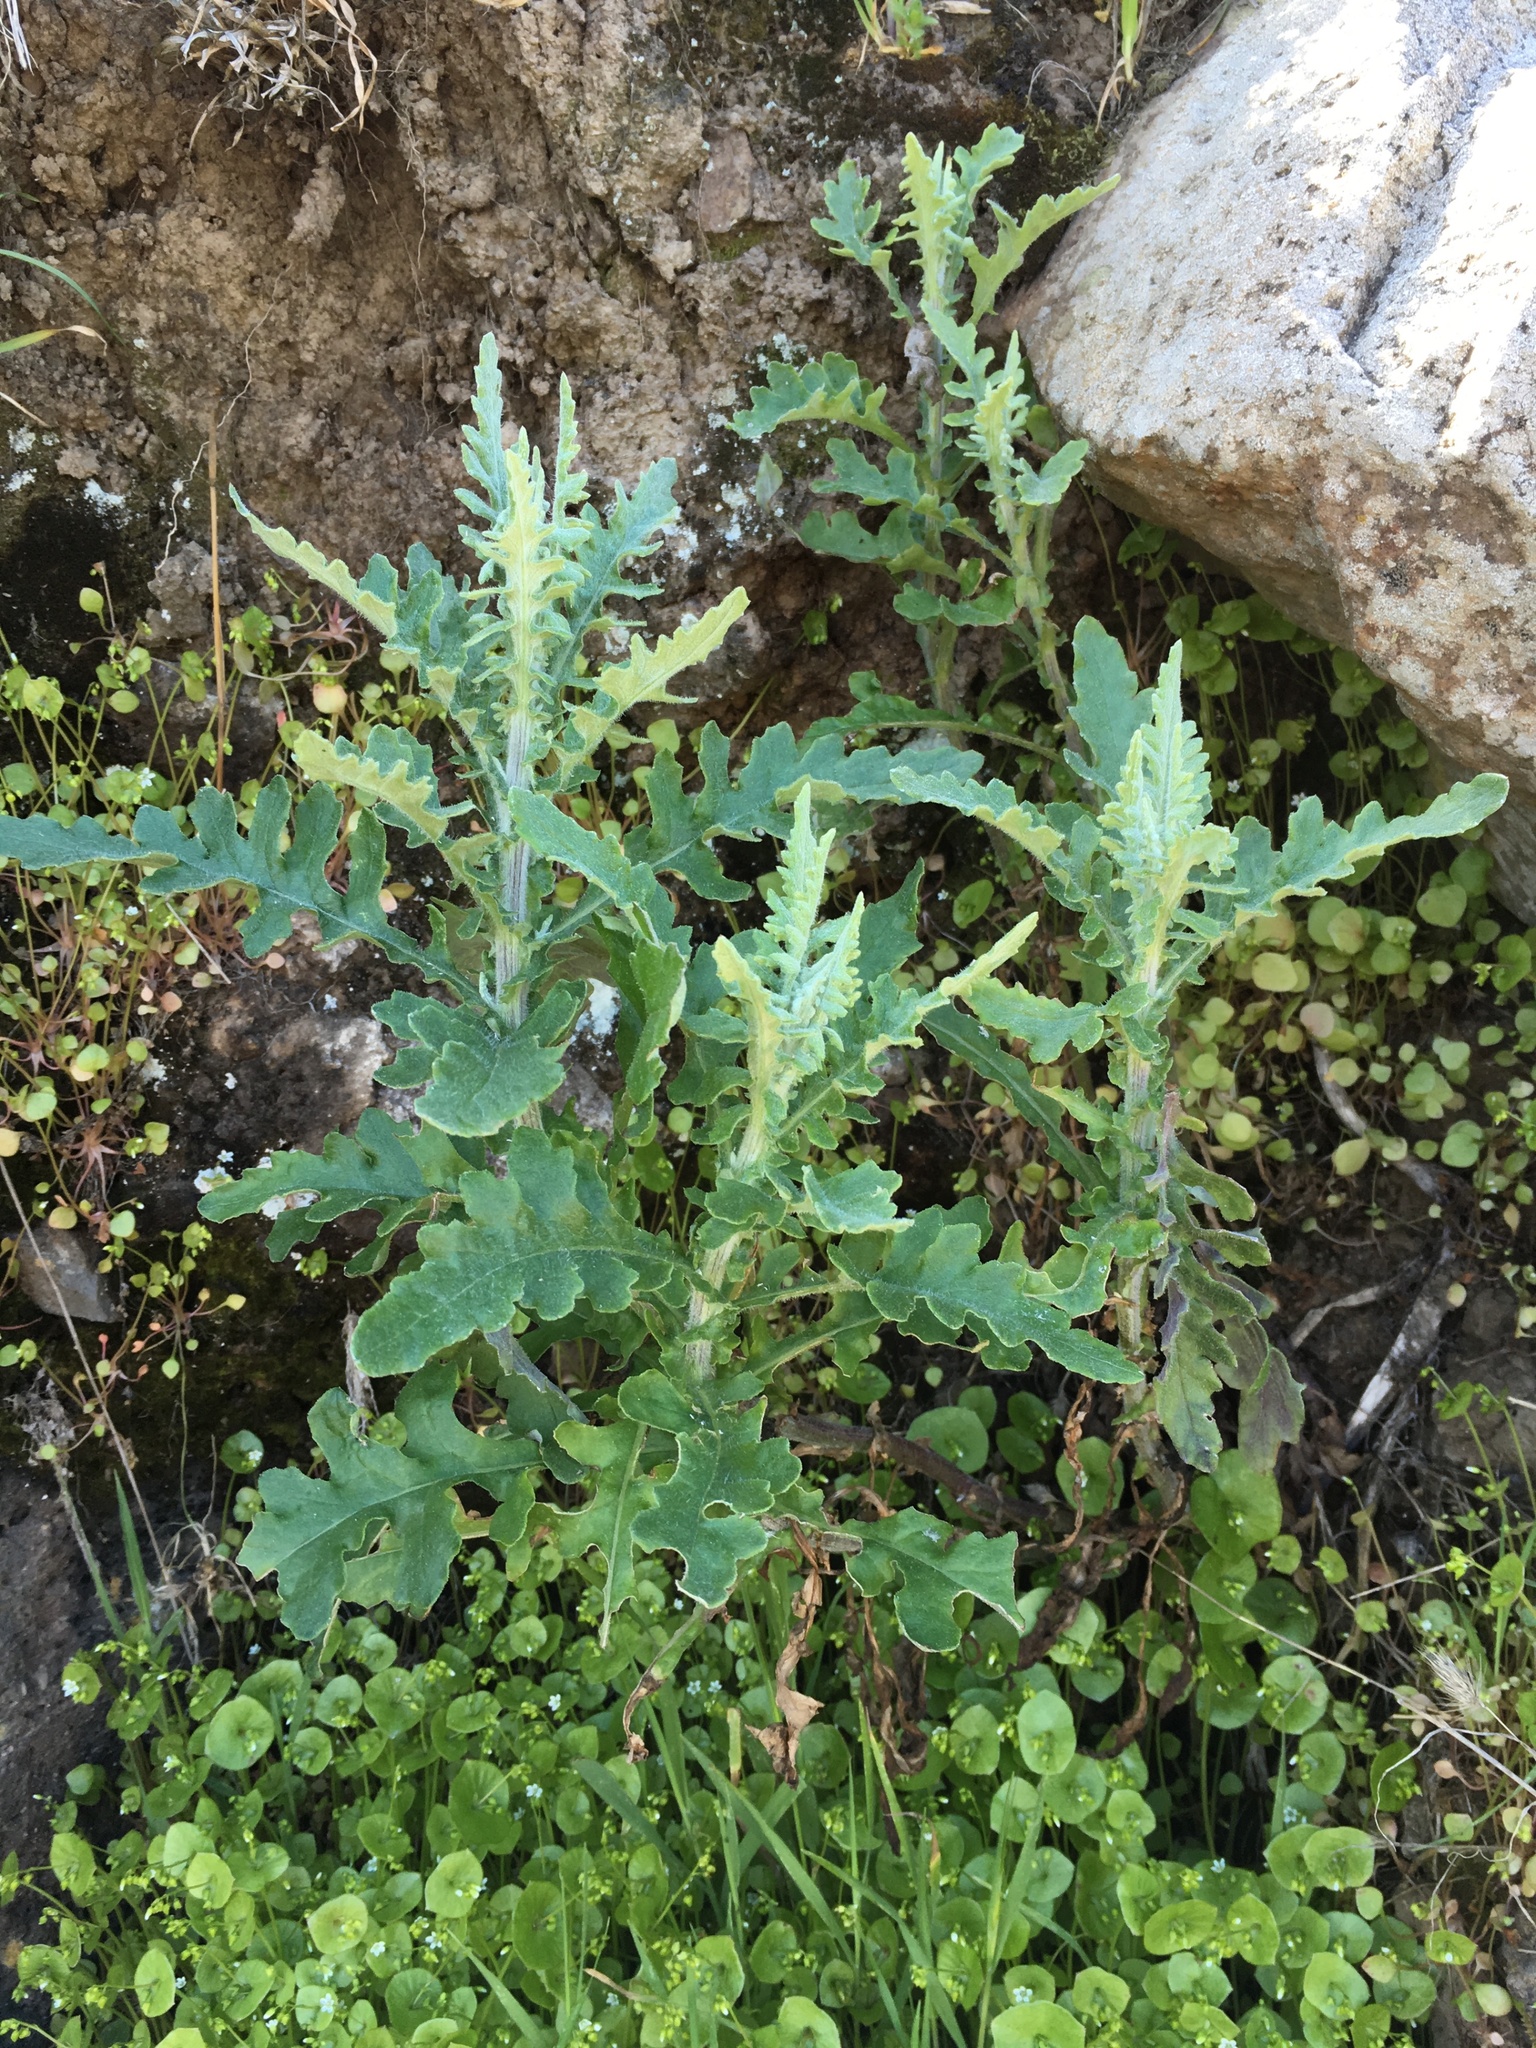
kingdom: Plantae
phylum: Tracheophyta
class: Magnoliopsida
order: Asterales
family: Asteraceae
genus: Senecio
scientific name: Senecio glomeratus
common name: Cutleaf burnweed
